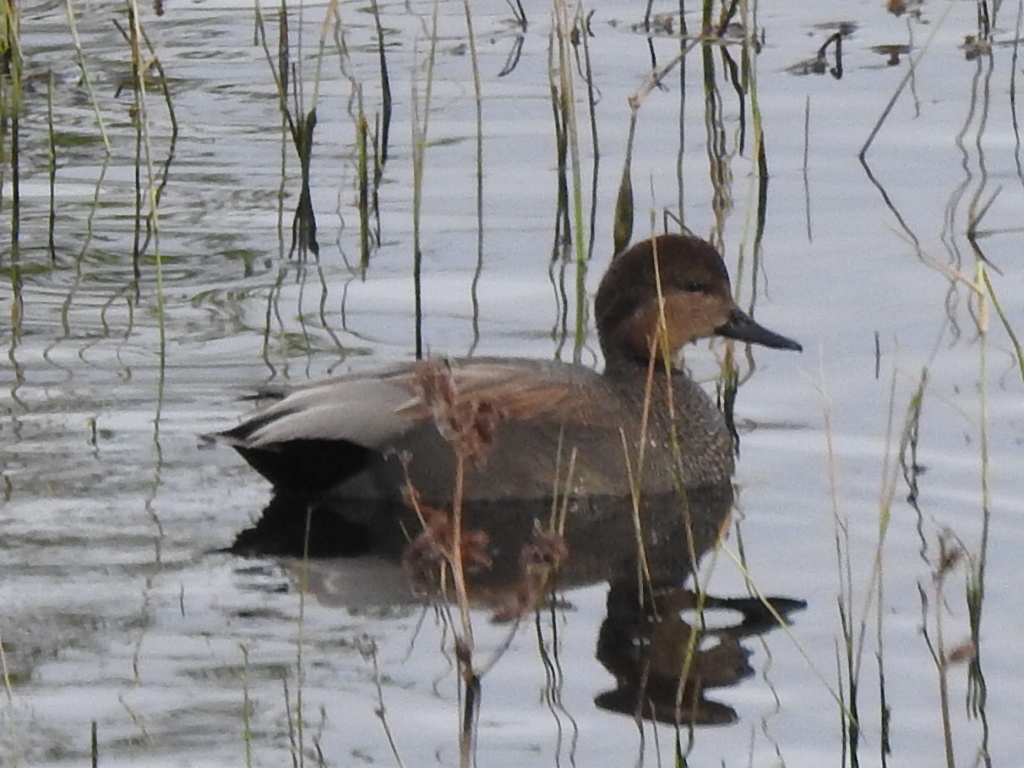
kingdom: Animalia
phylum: Chordata
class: Aves
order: Anseriformes
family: Anatidae
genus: Mareca
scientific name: Mareca strepera
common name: Gadwall
